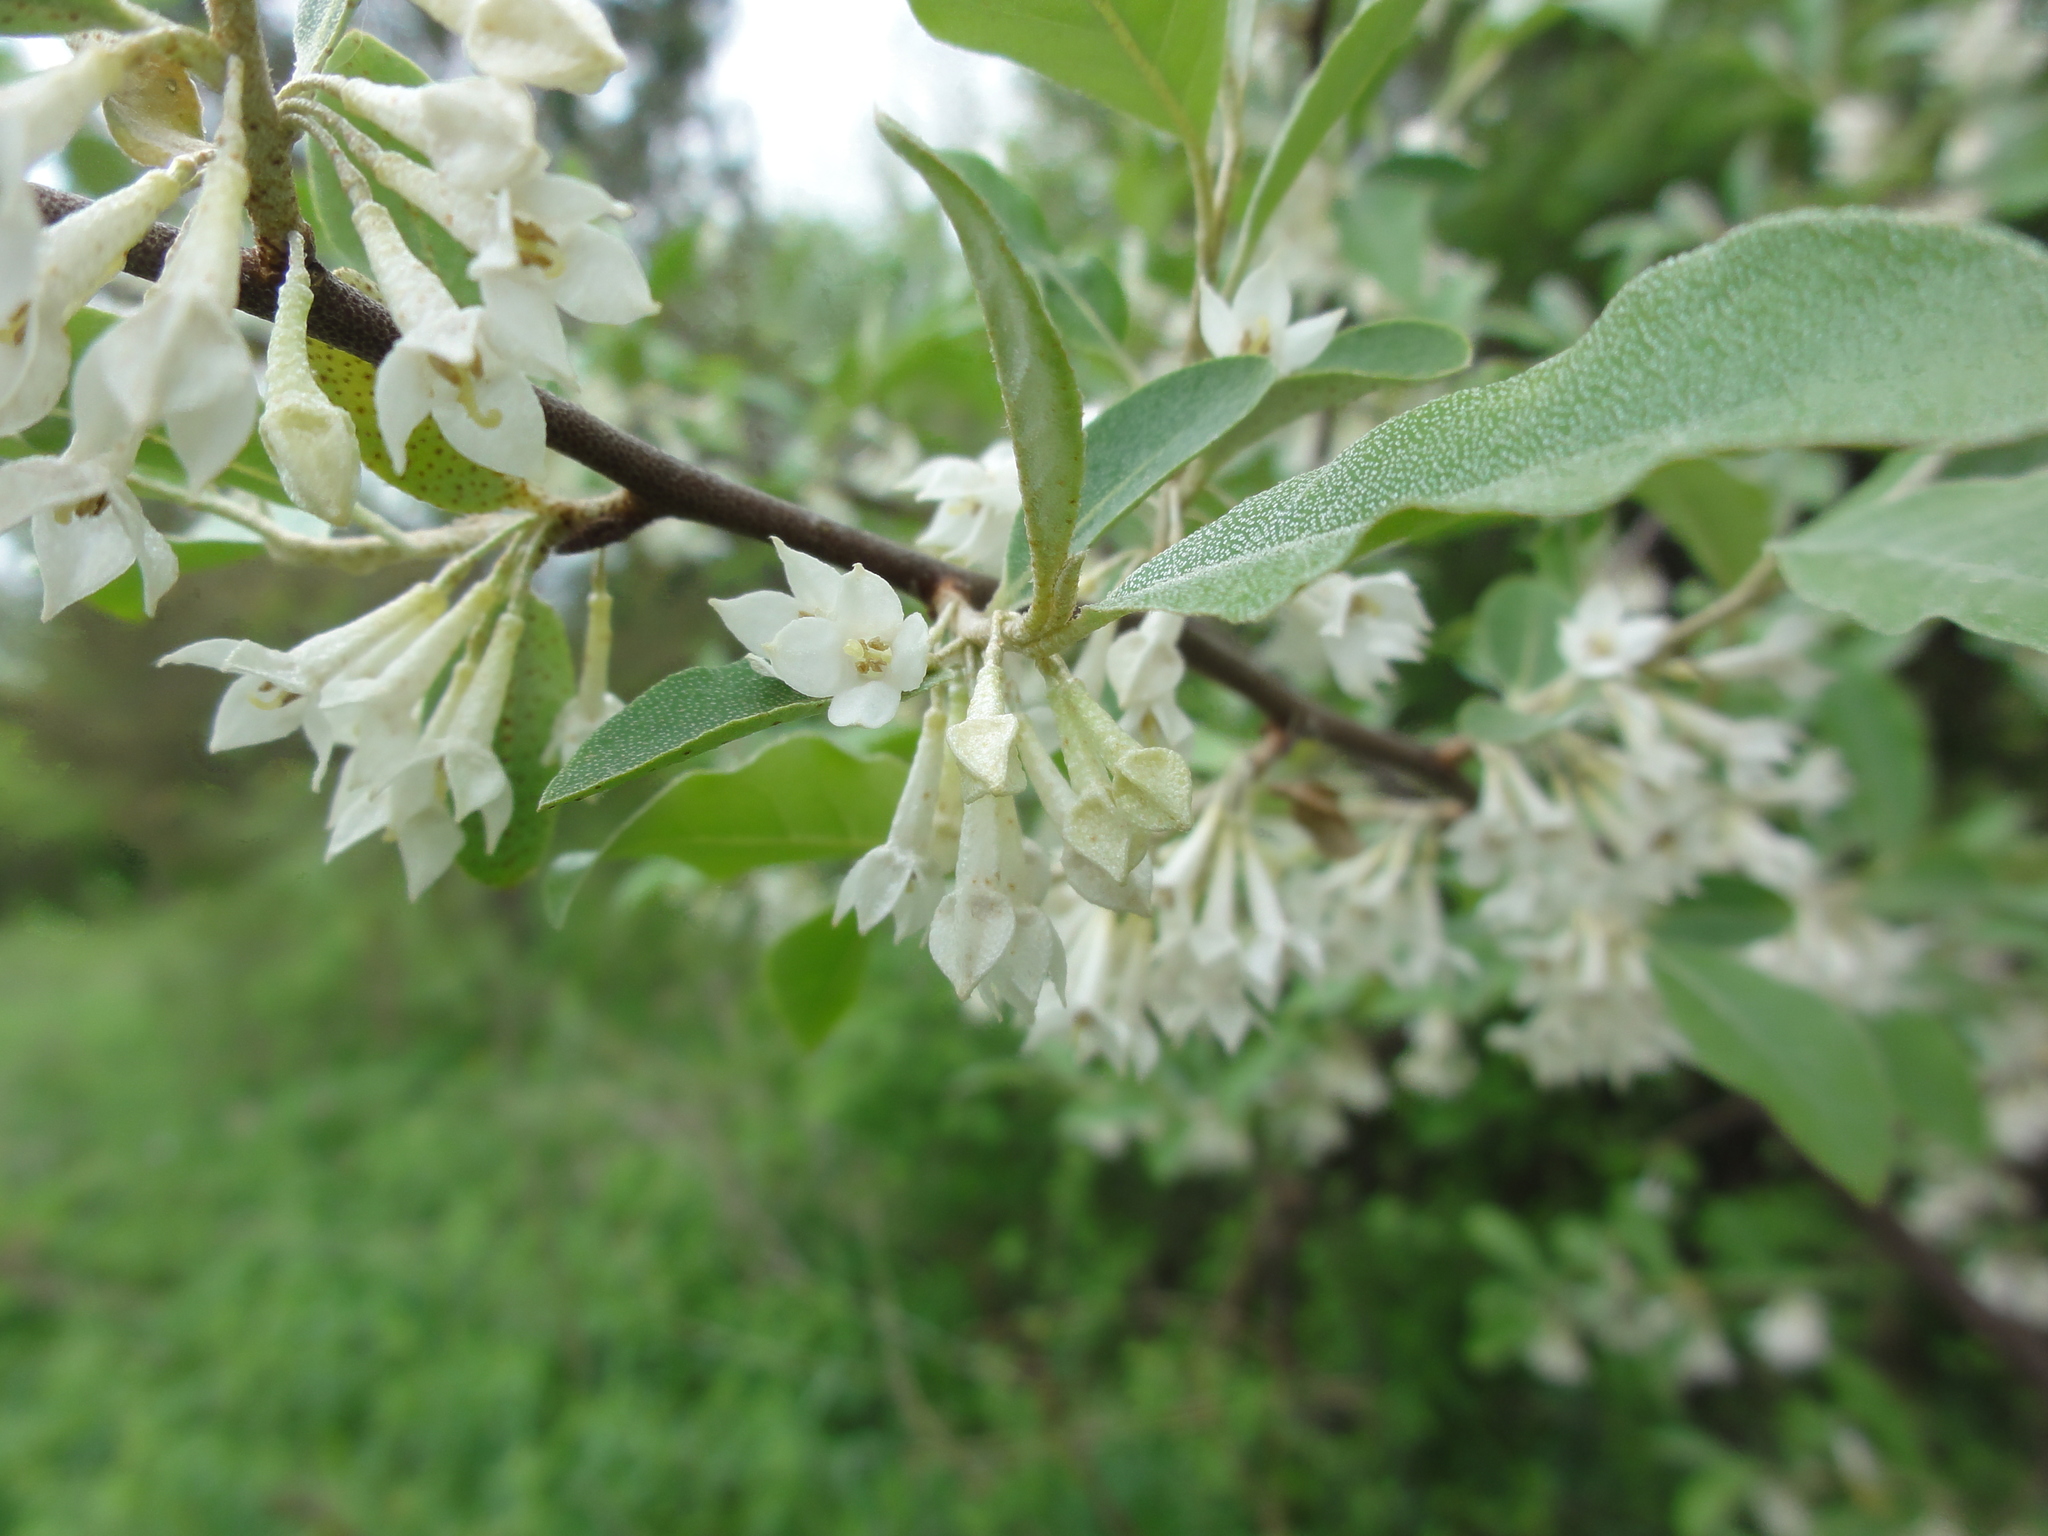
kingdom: Plantae
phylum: Tracheophyta
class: Magnoliopsida
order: Rosales
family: Elaeagnaceae
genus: Elaeagnus
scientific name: Elaeagnus umbellata
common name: Autumn olive
